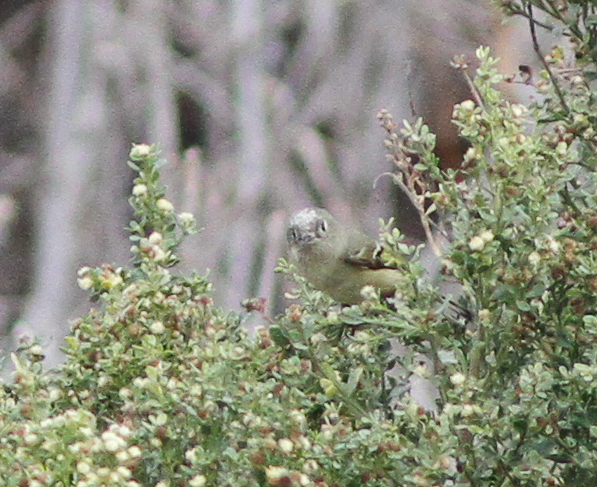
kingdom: Animalia
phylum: Chordata
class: Aves
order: Passeriformes
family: Regulidae
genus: Regulus
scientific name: Regulus calendula
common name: Ruby-crowned kinglet
